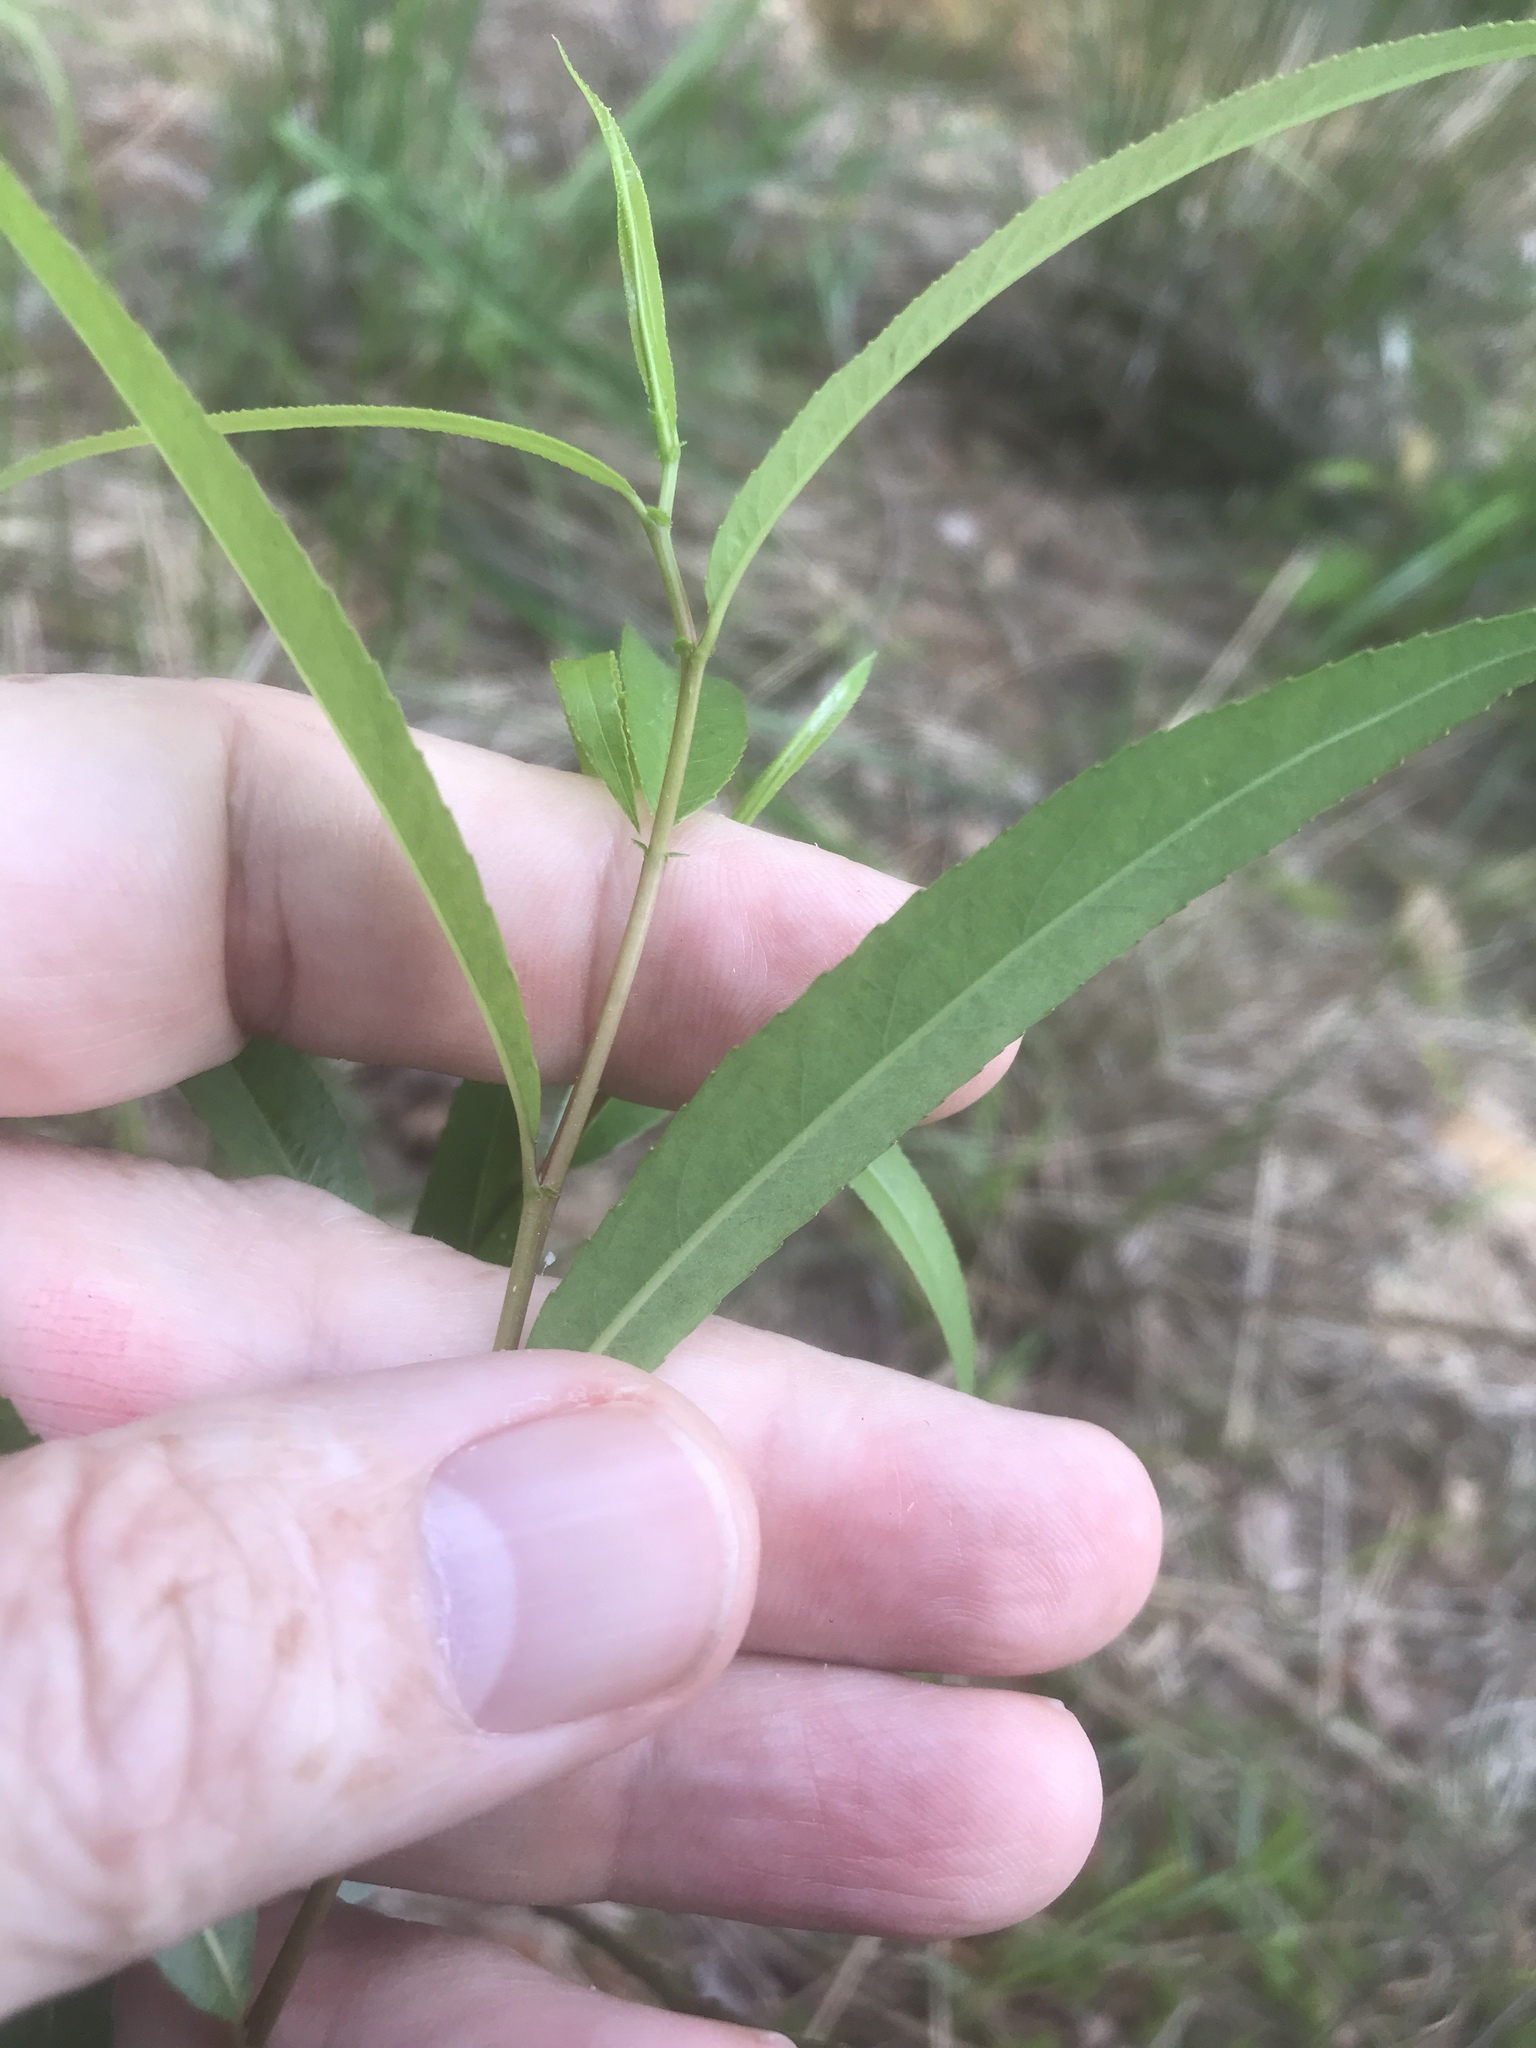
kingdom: Plantae
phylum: Tracheophyta
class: Magnoliopsida
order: Malpighiales
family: Salicaceae
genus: Salix
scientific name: Salix nigra
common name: Black willow
